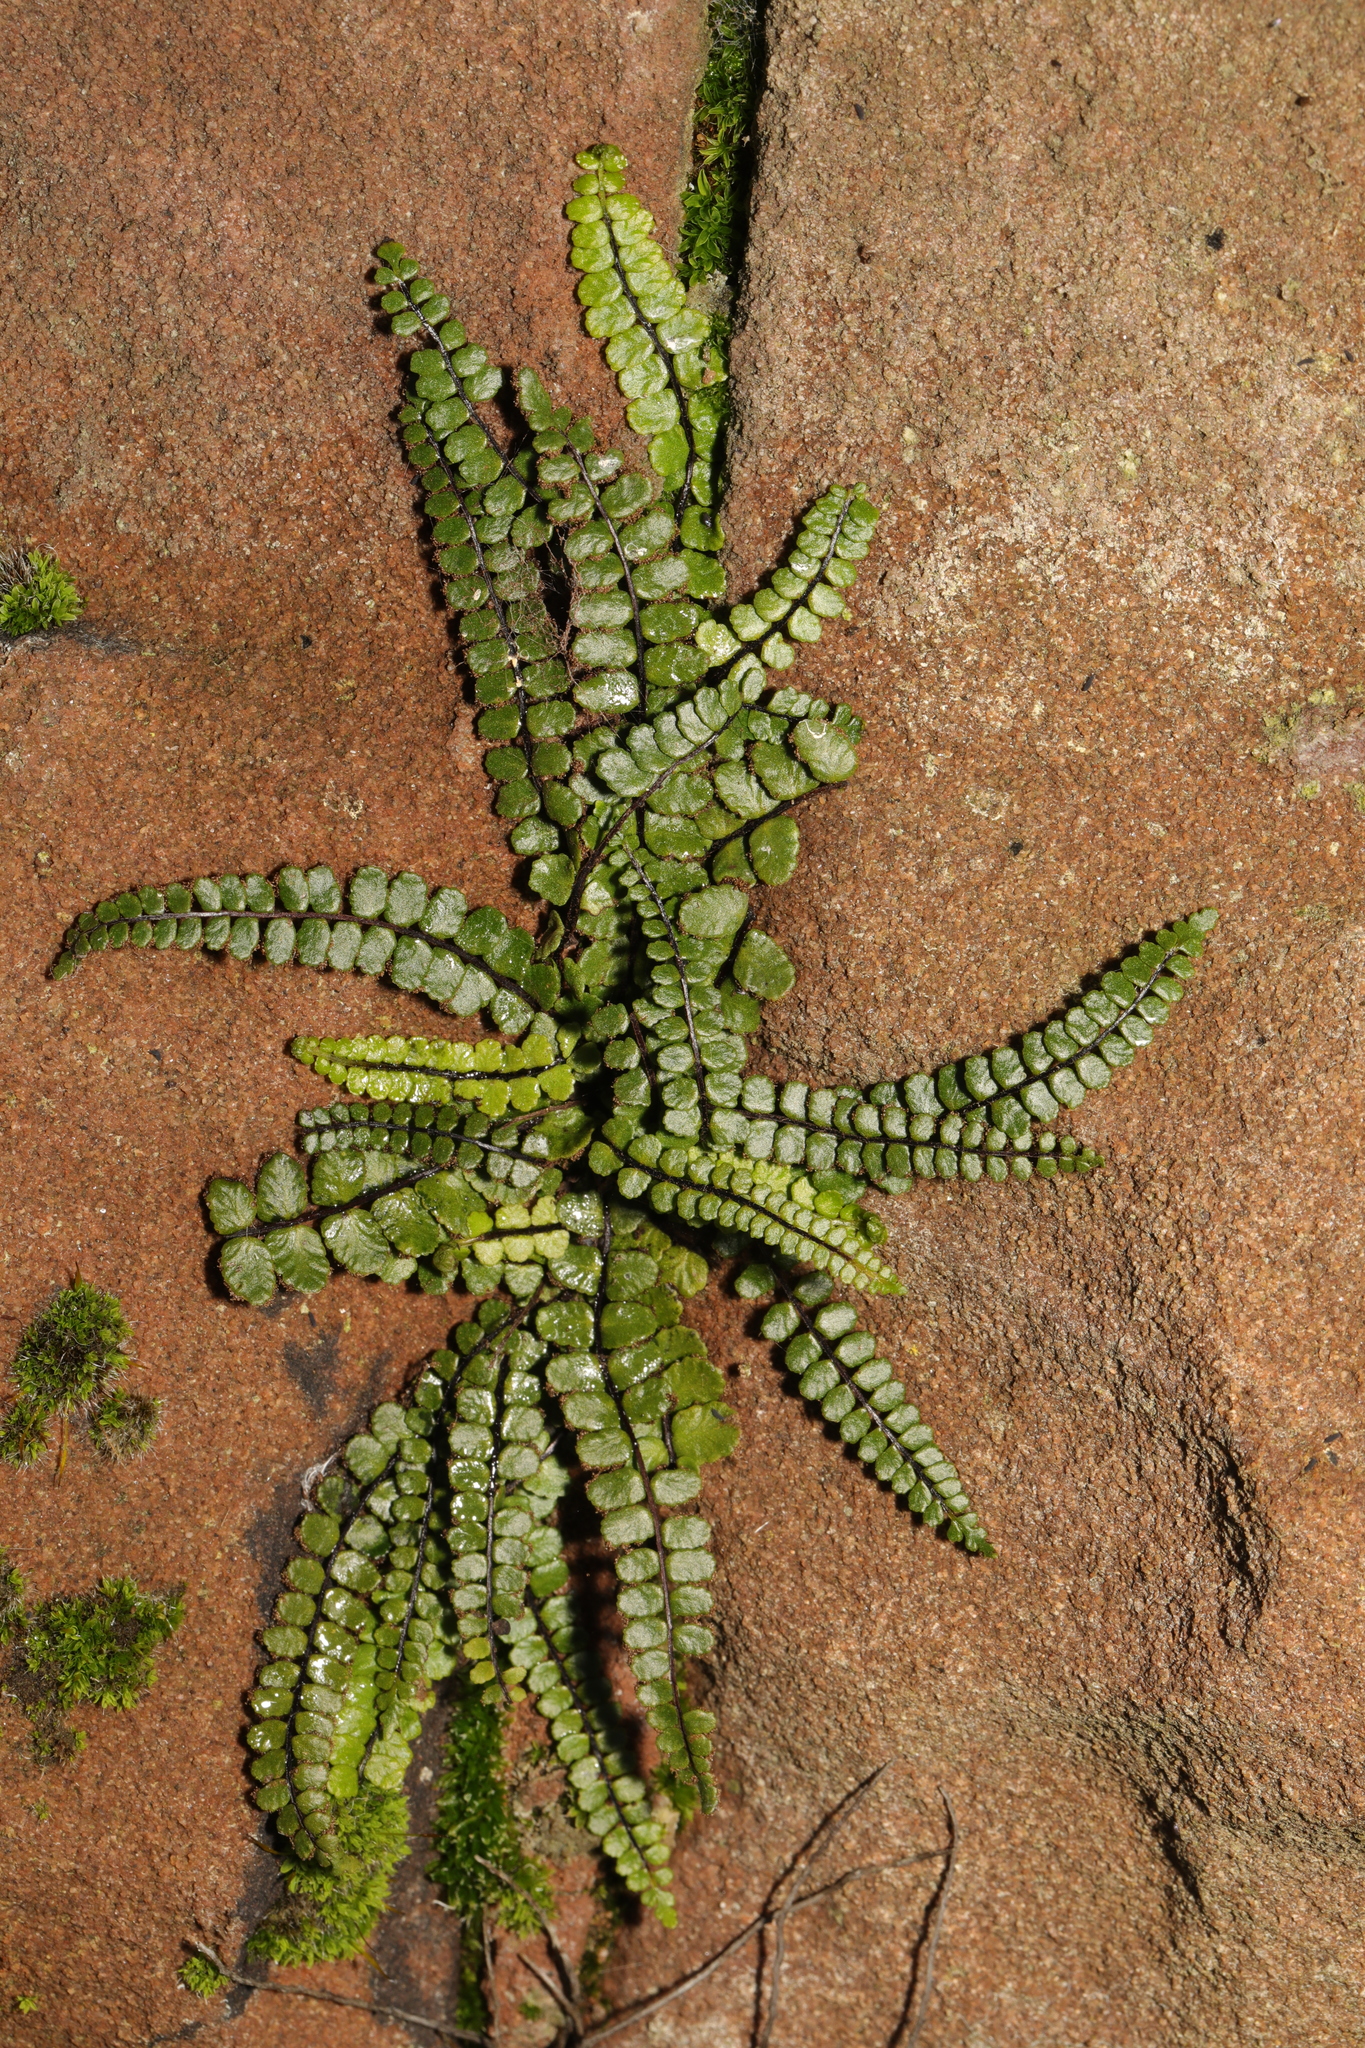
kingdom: Plantae
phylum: Tracheophyta
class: Polypodiopsida
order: Polypodiales
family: Aspleniaceae
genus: Asplenium
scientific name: Asplenium trichomanes
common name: Maidenhair spleenwort
